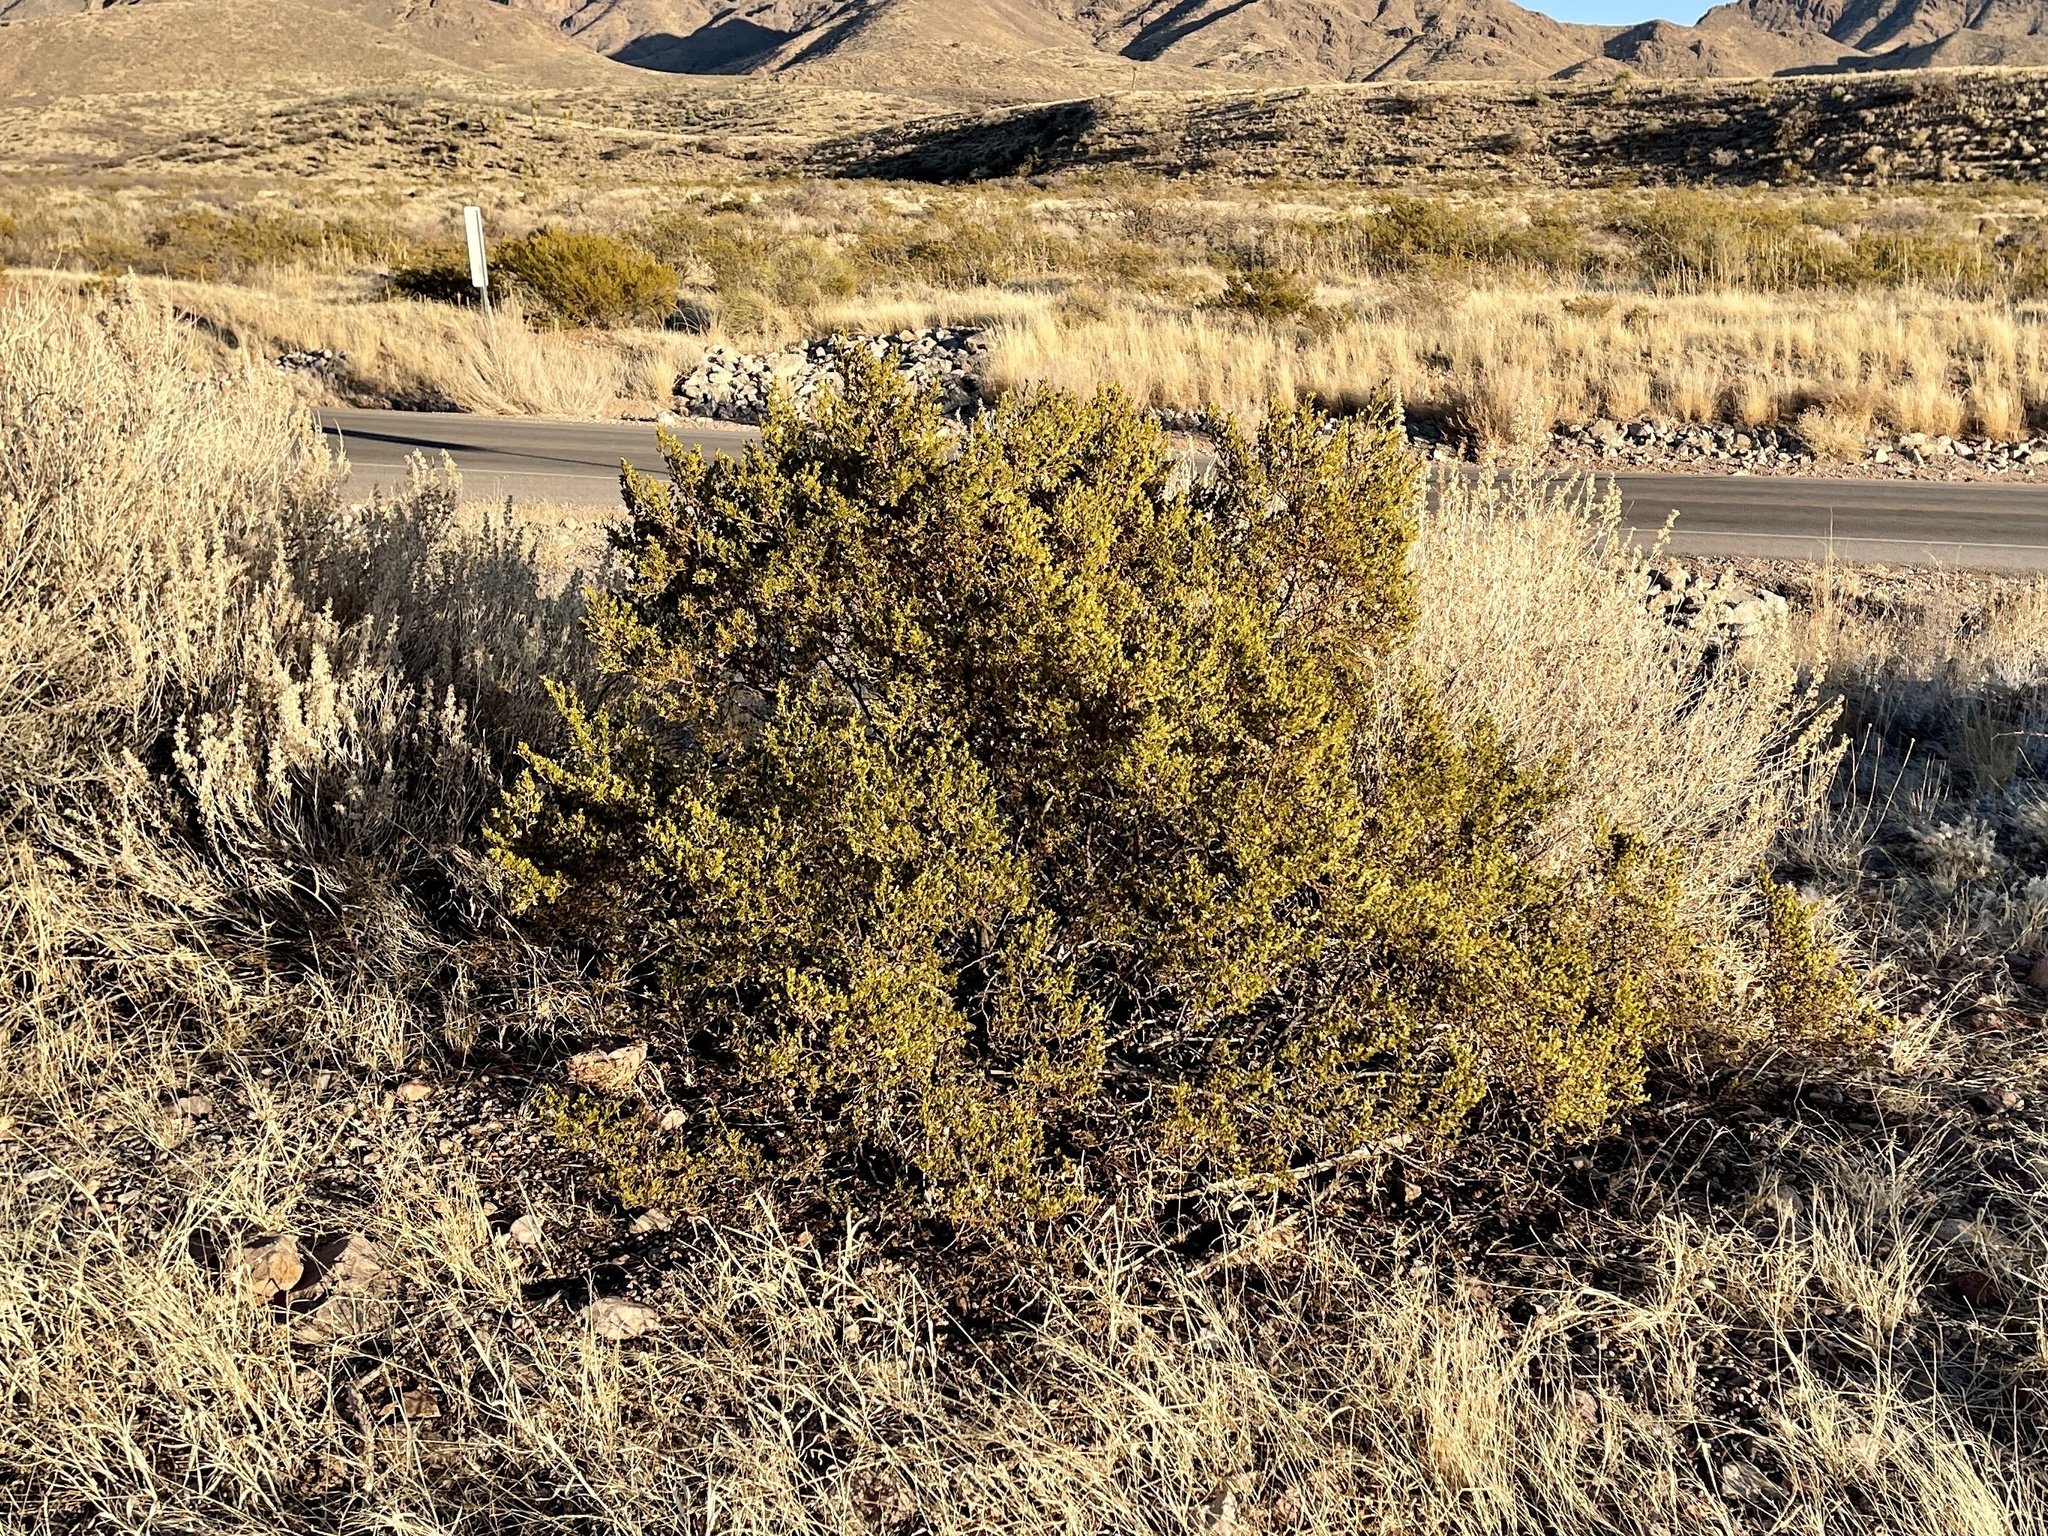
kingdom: Plantae
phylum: Tracheophyta
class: Magnoliopsida
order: Zygophyllales
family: Zygophyllaceae
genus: Larrea
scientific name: Larrea tridentata
